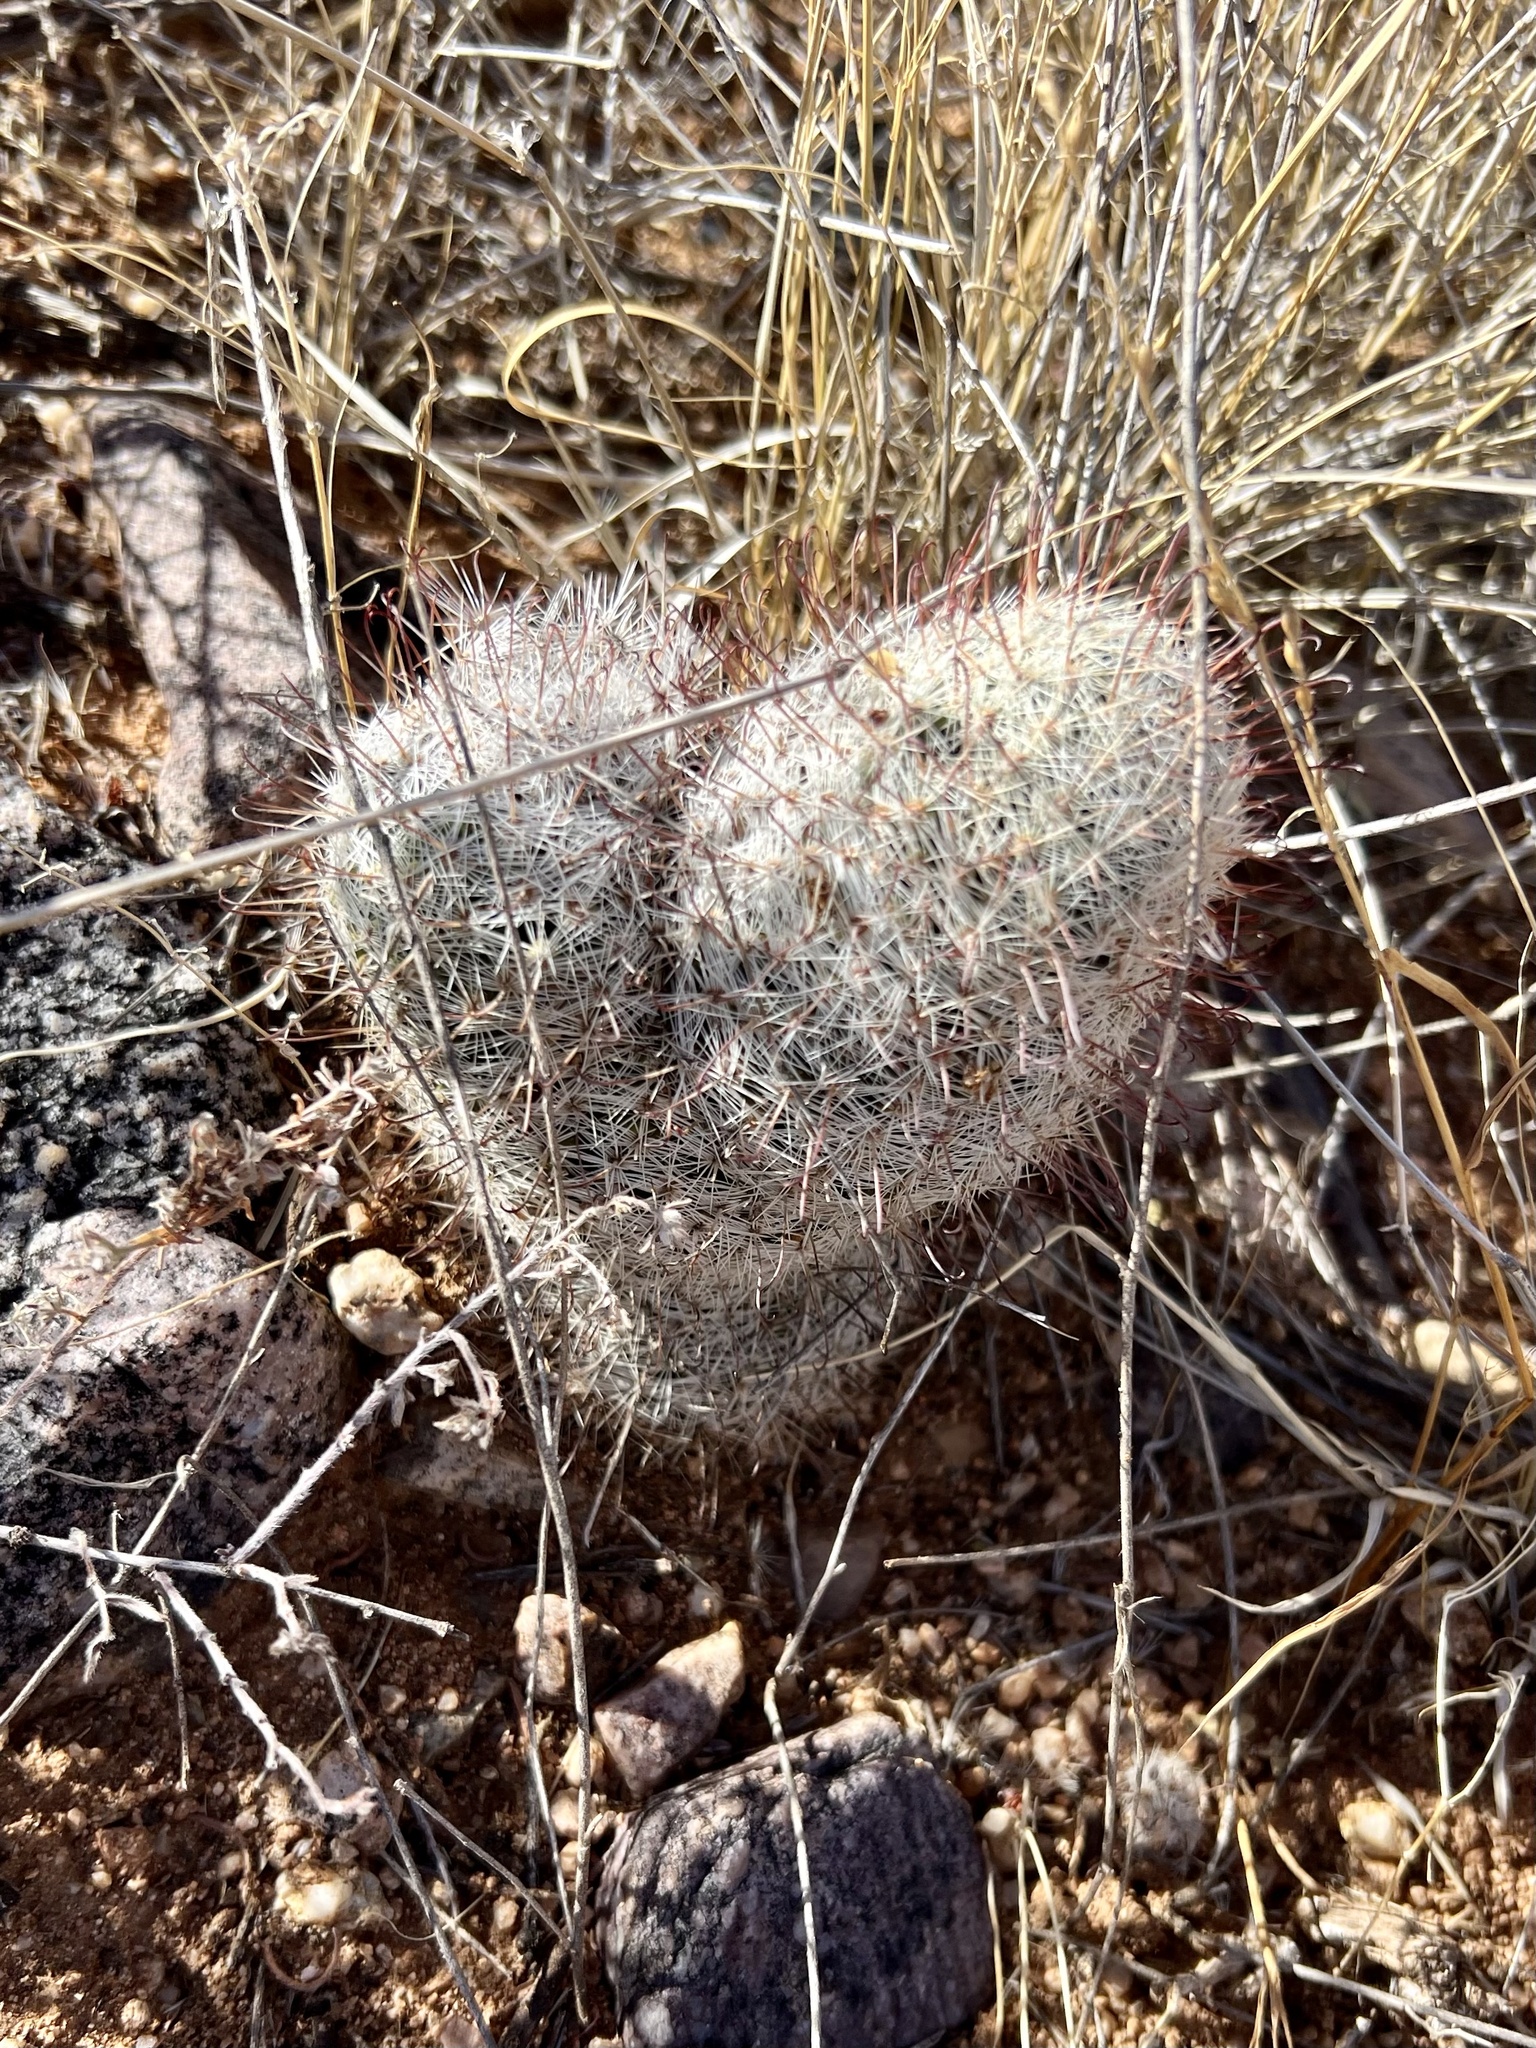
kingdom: Plantae
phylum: Tracheophyta
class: Magnoliopsida
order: Caryophyllales
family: Cactaceae
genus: Cochemiea
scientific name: Cochemiea grahamii
